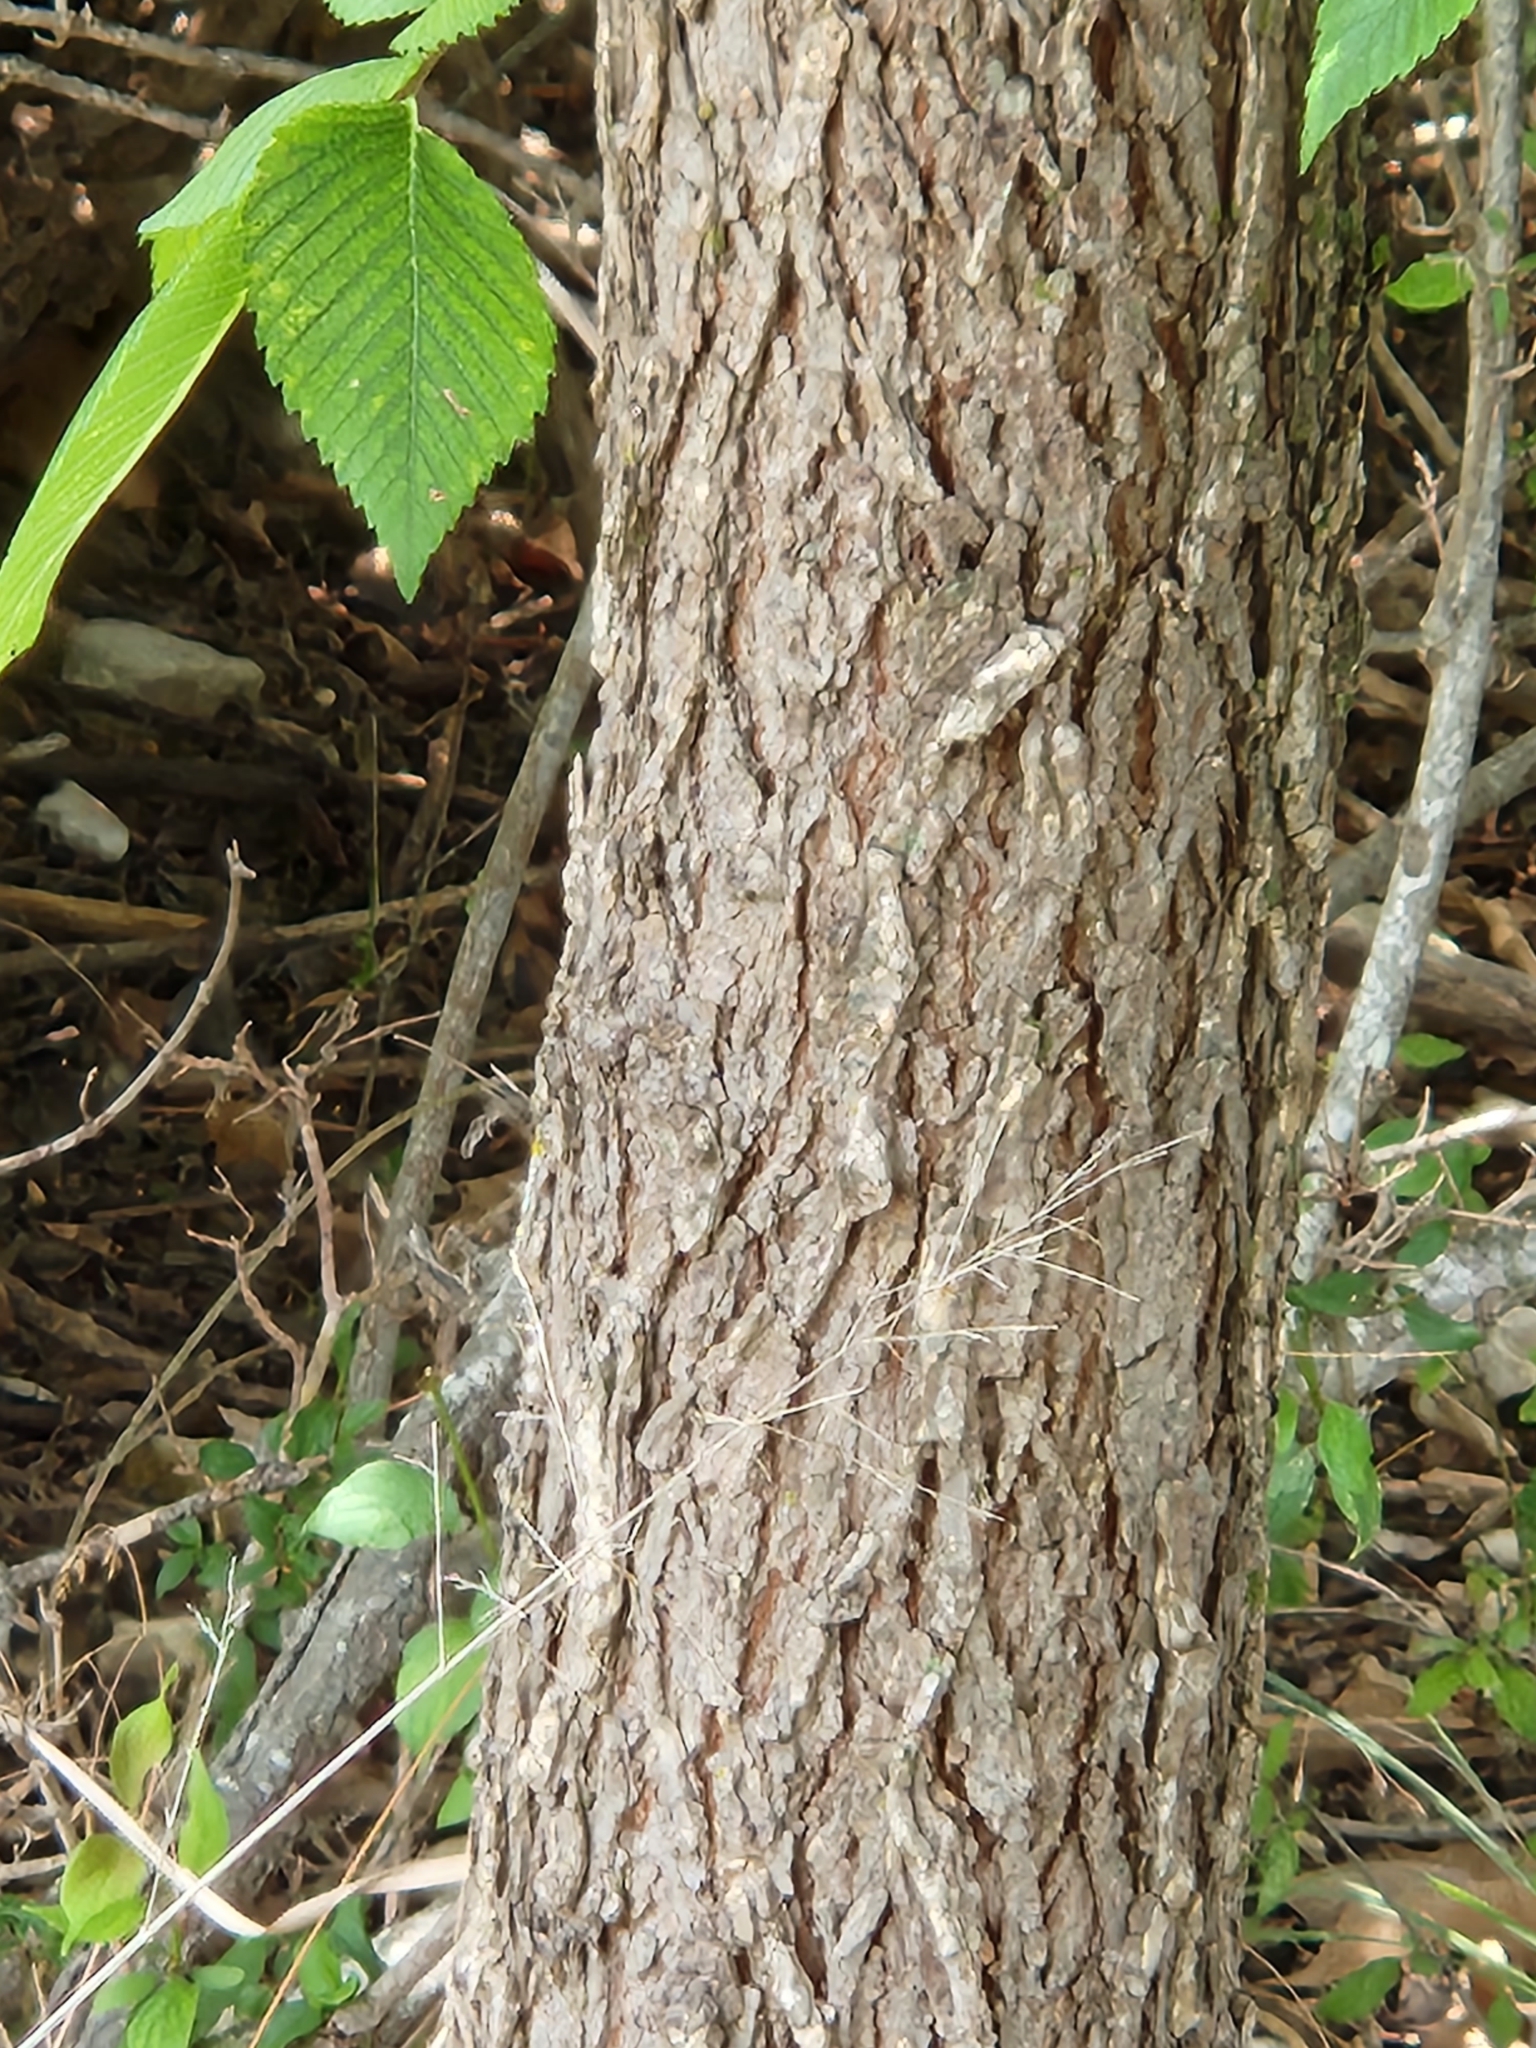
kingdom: Plantae
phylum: Tracheophyta
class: Magnoliopsida
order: Rosales
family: Ulmaceae
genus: Ulmus
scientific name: Ulmus americana
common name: American elm
